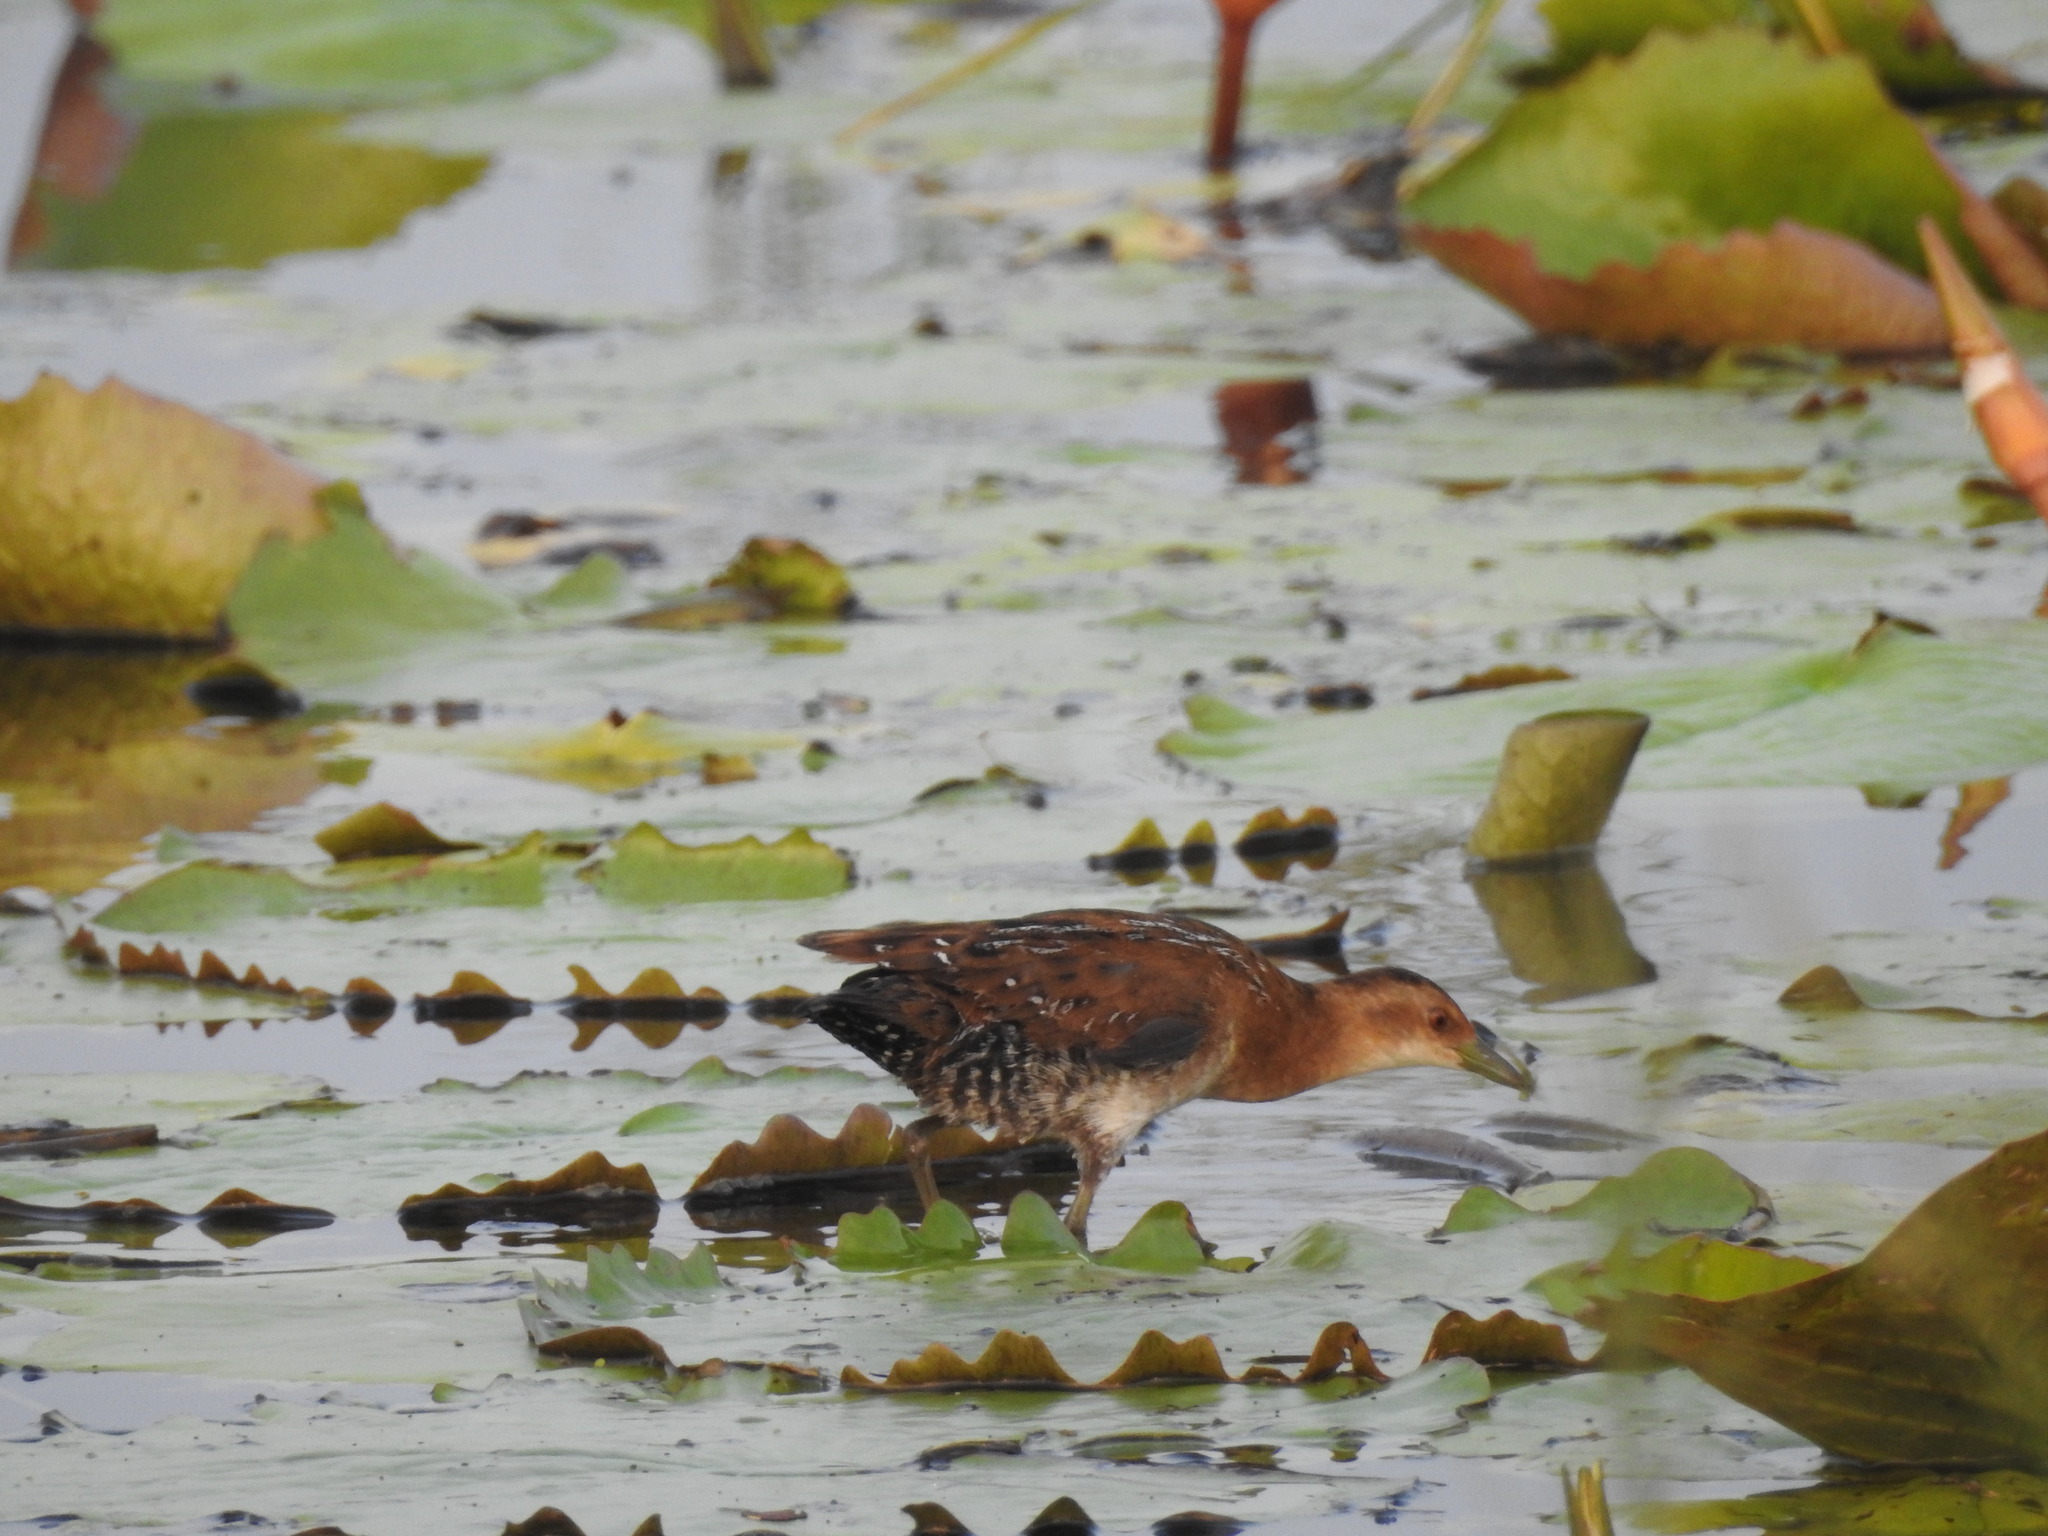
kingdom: Animalia
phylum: Chordata
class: Aves
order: Gruiformes
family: Rallidae
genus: Porzana
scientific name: Porzana pusilla
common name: Baillon's crake
